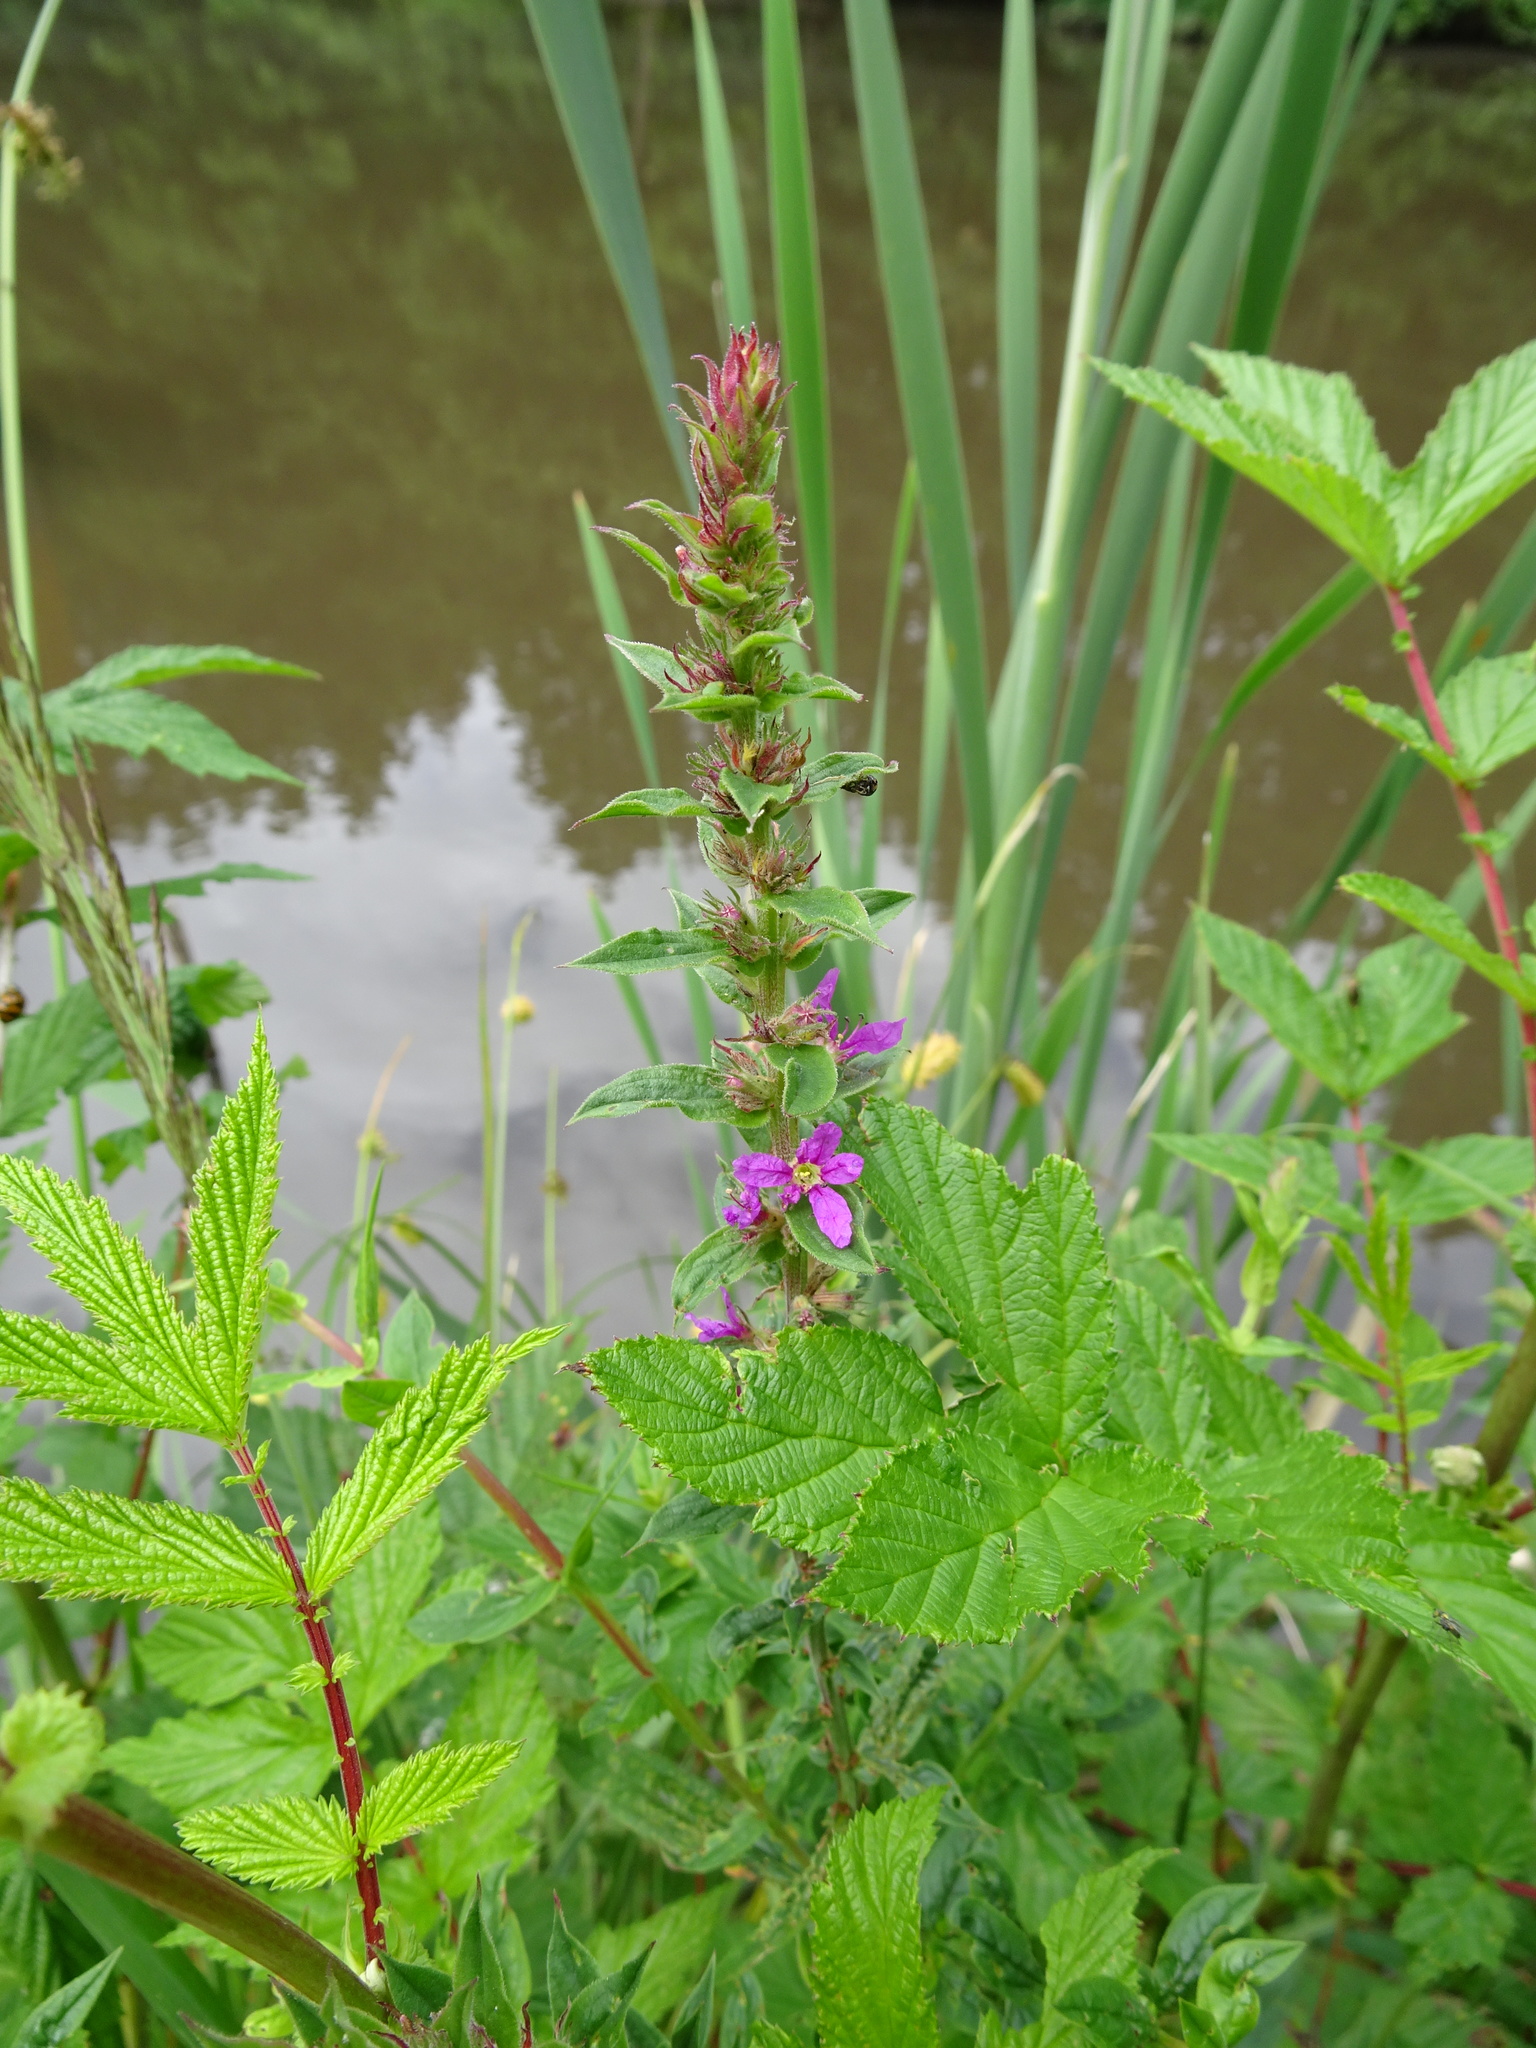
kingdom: Plantae
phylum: Tracheophyta
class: Magnoliopsida
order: Myrtales
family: Lythraceae
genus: Lythrum
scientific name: Lythrum salicaria
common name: Purple loosestrife
